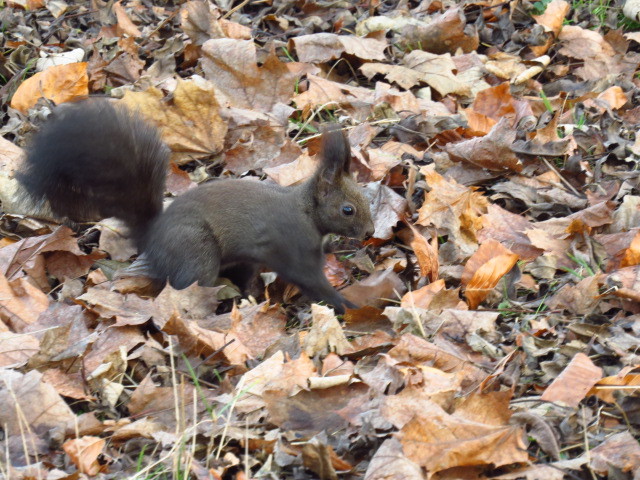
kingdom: Animalia
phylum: Chordata
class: Mammalia
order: Rodentia
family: Sciuridae
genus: Sciurus
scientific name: Sciurus vulgaris
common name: Eurasian red squirrel
